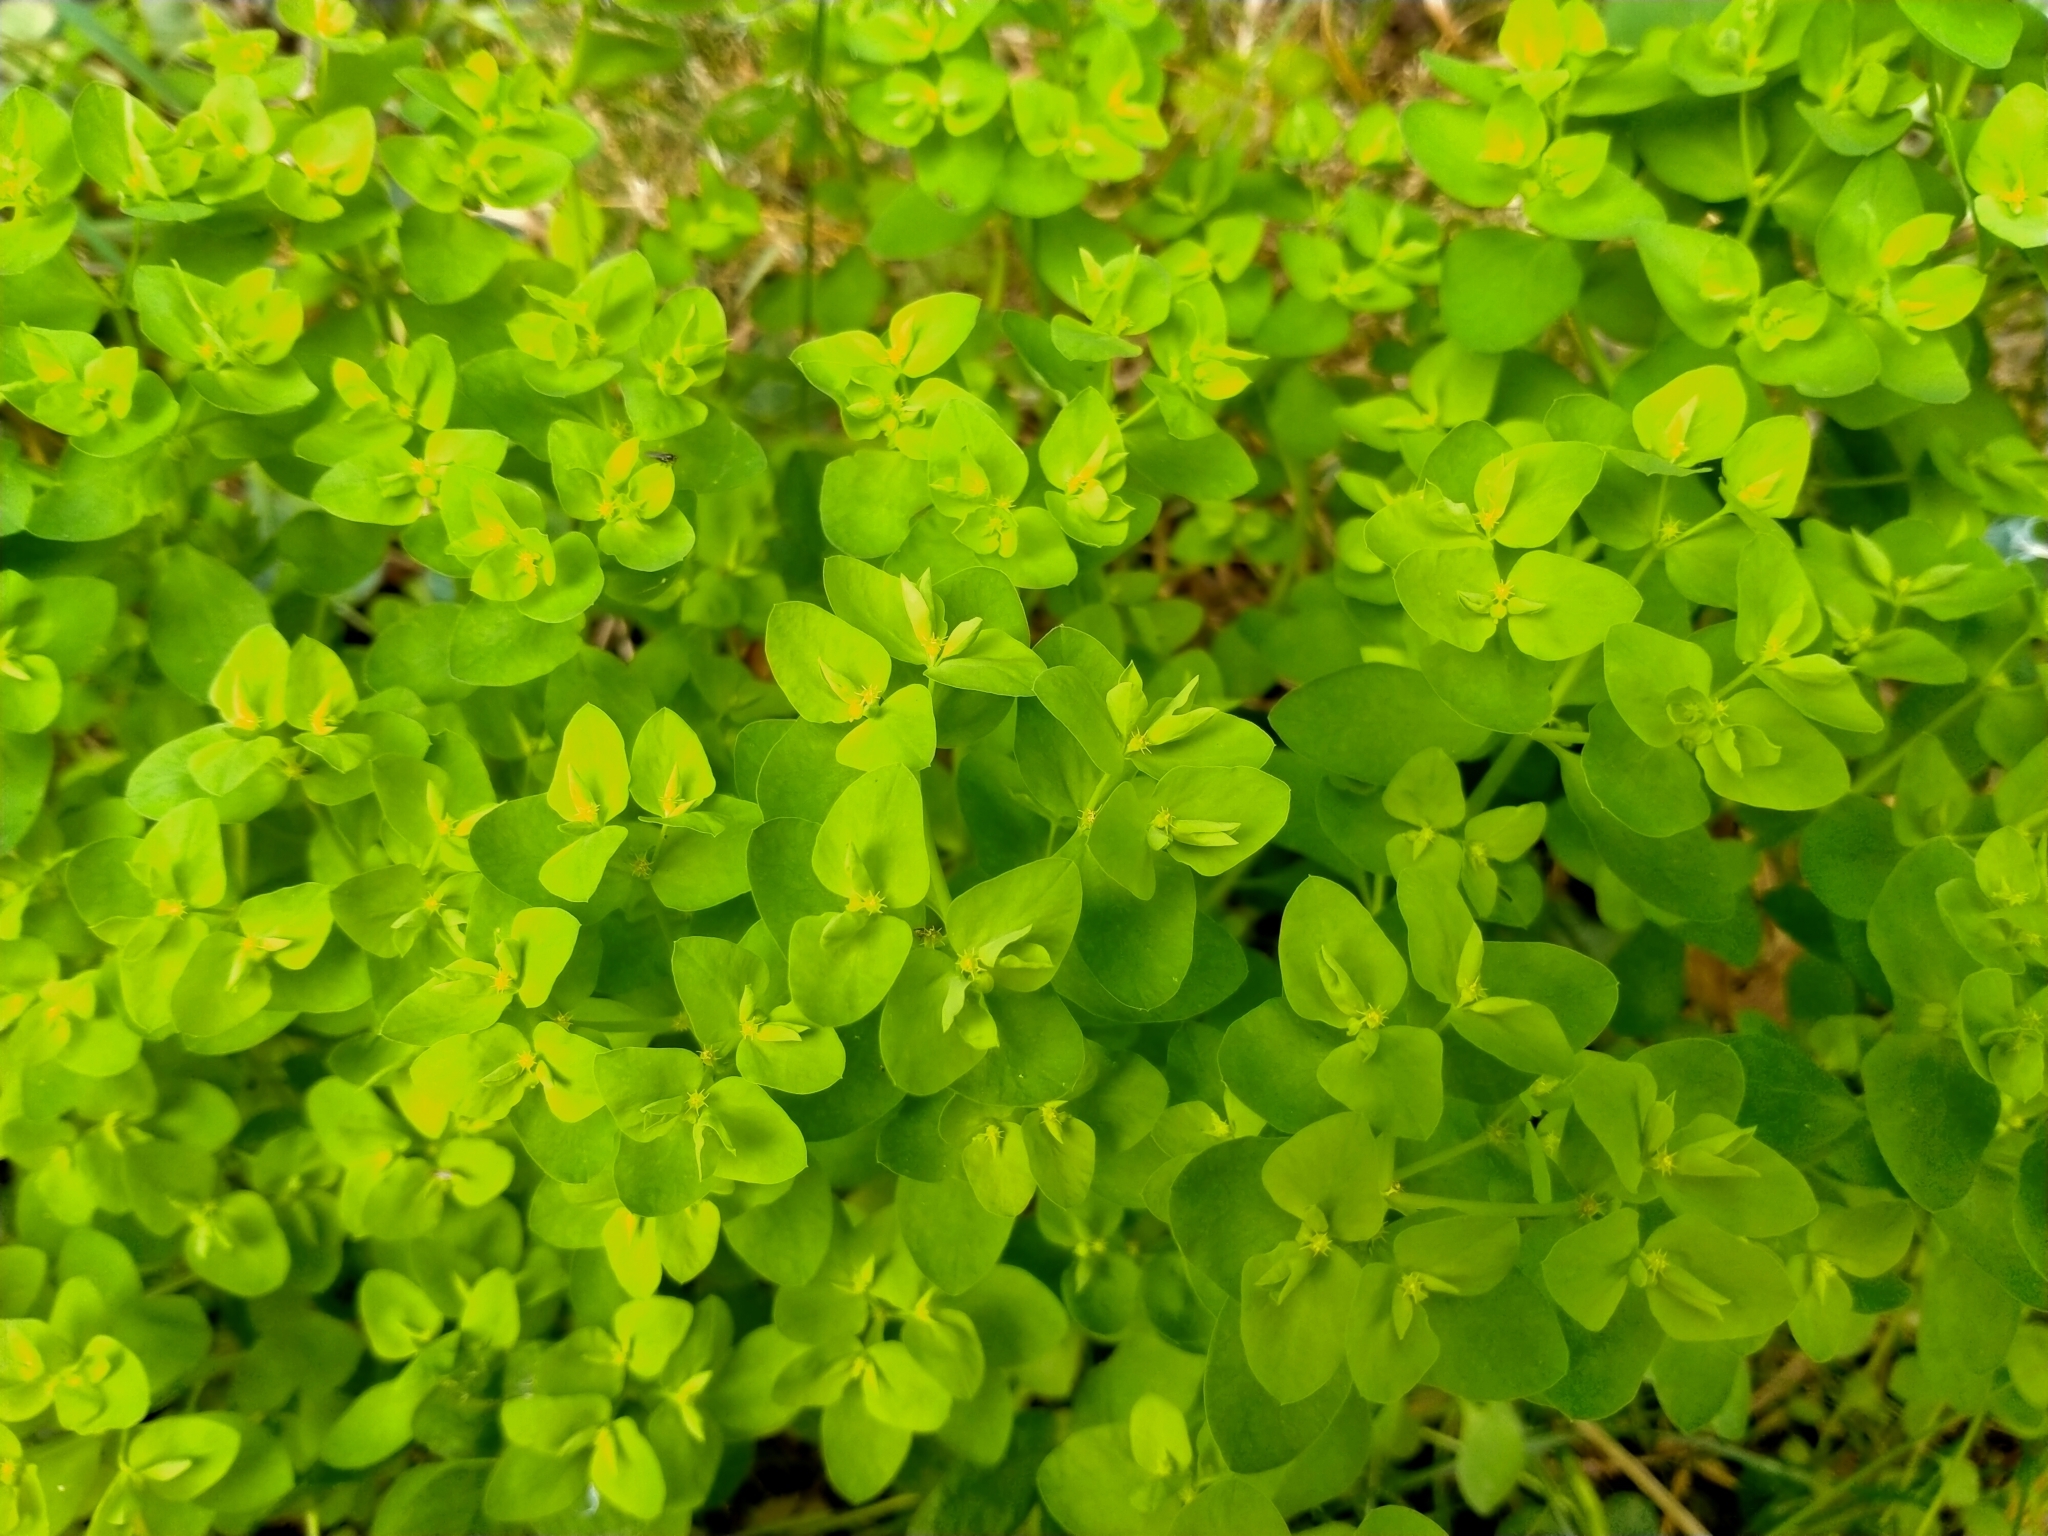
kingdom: Plantae
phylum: Tracheophyta
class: Magnoliopsida
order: Malpighiales
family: Euphorbiaceae
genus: Euphorbia
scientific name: Euphorbia peplus
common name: Petty spurge
